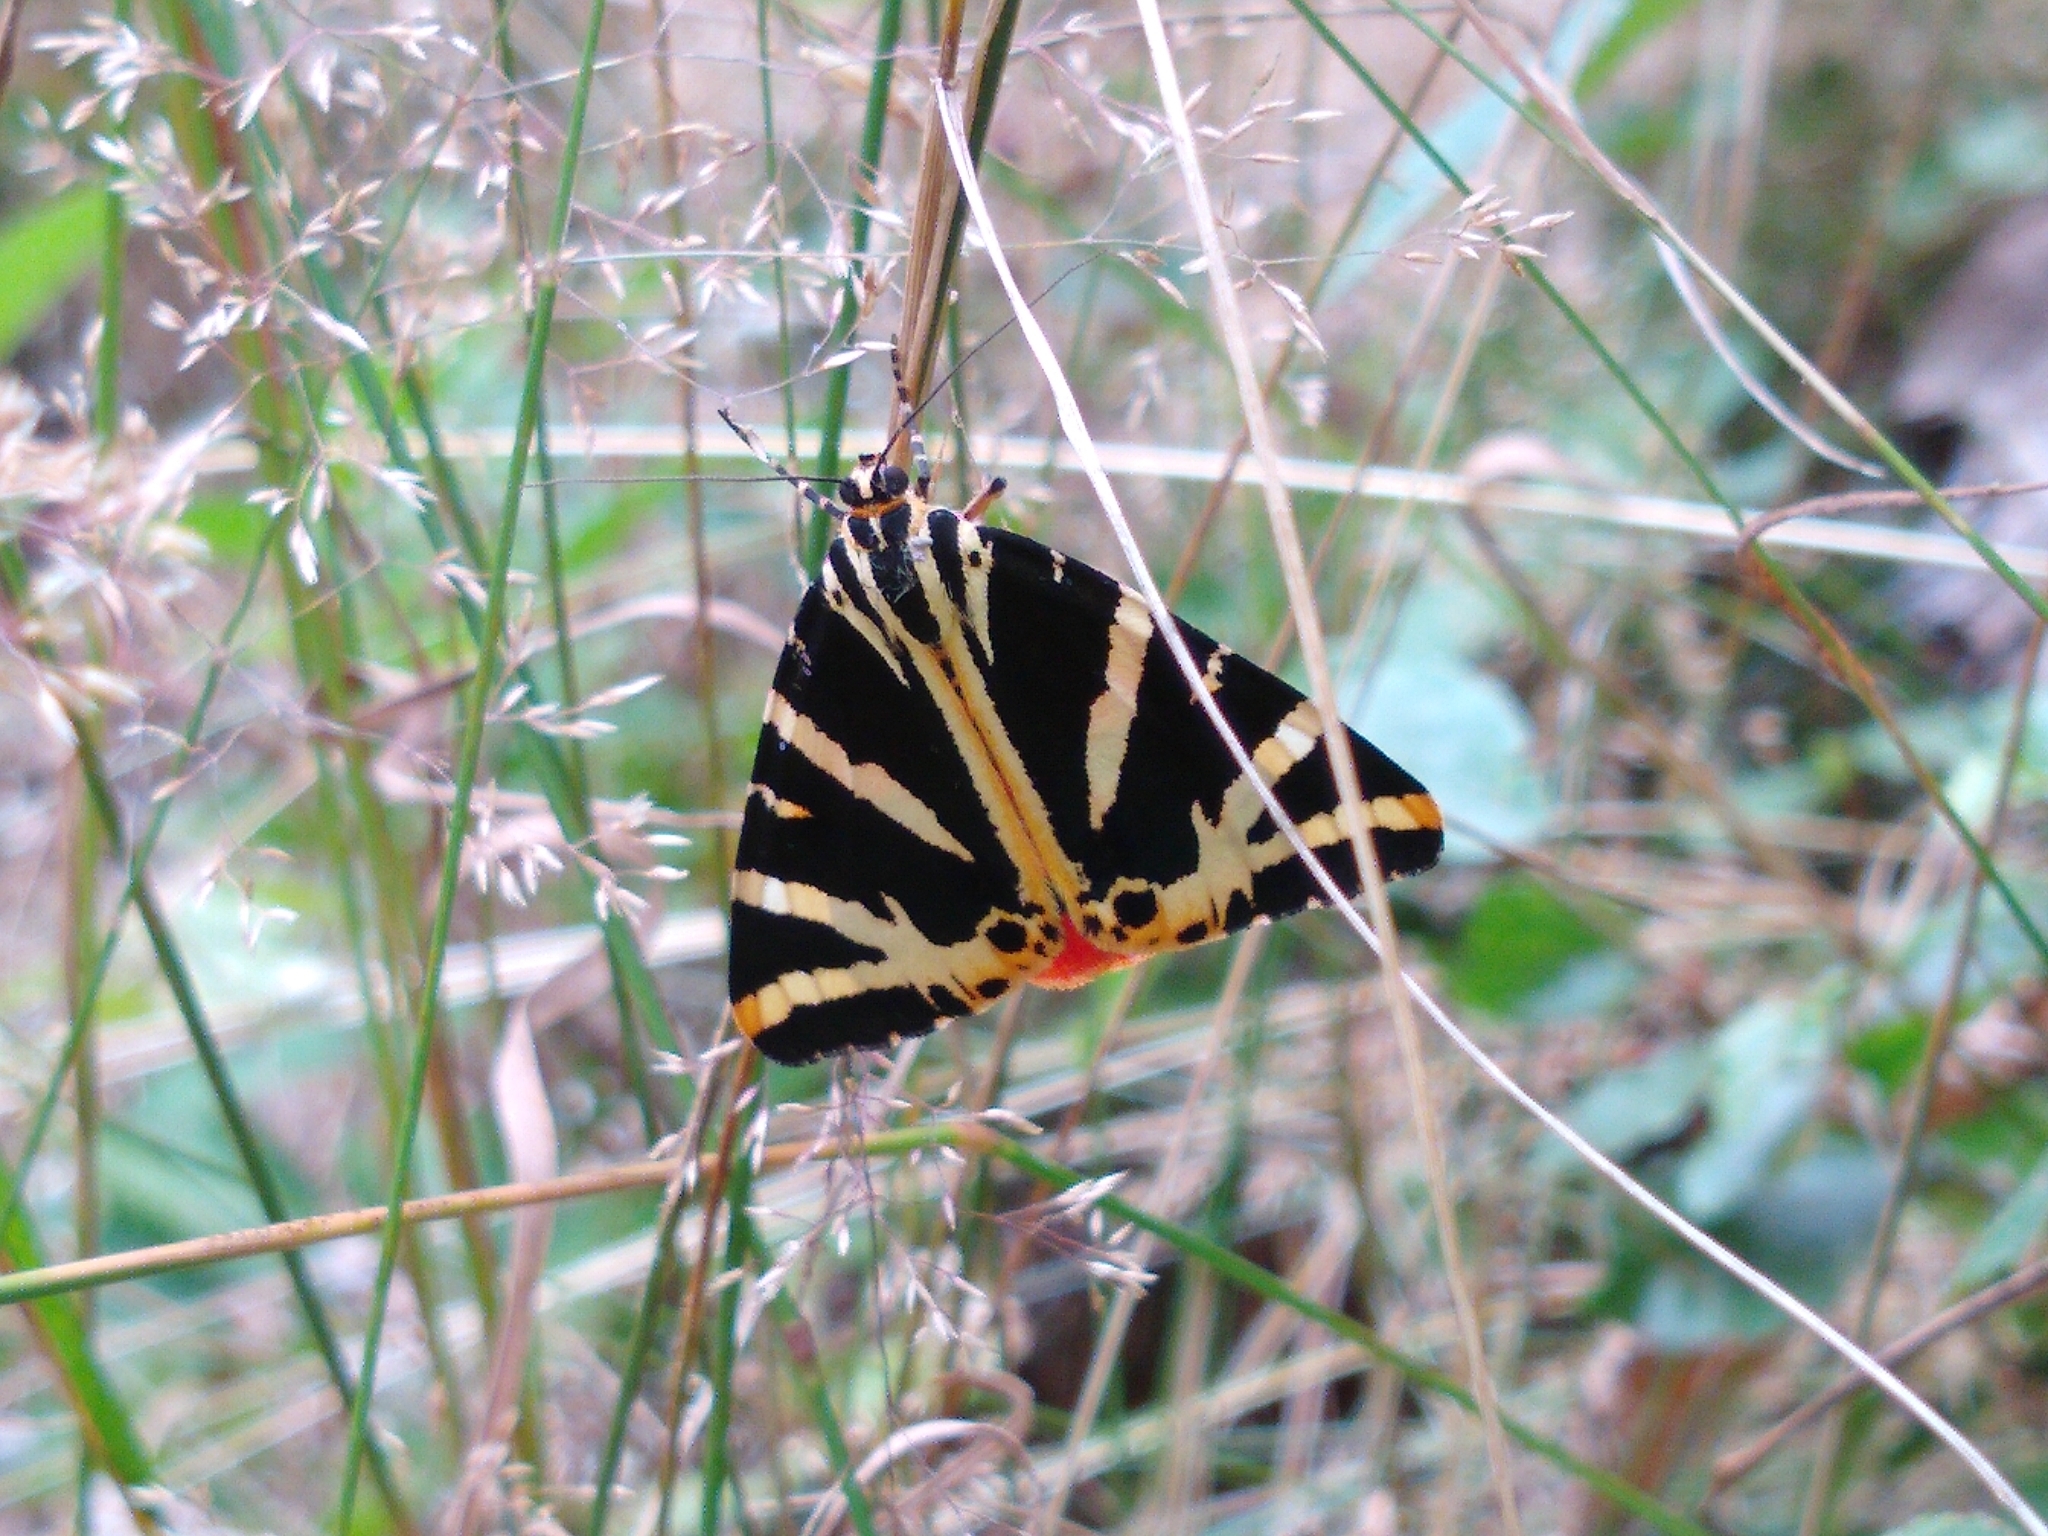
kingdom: Animalia
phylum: Arthropoda
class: Insecta
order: Lepidoptera
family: Erebidae
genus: Euplagia
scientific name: Euplagia quadripunctaria
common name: Jersey tiger
